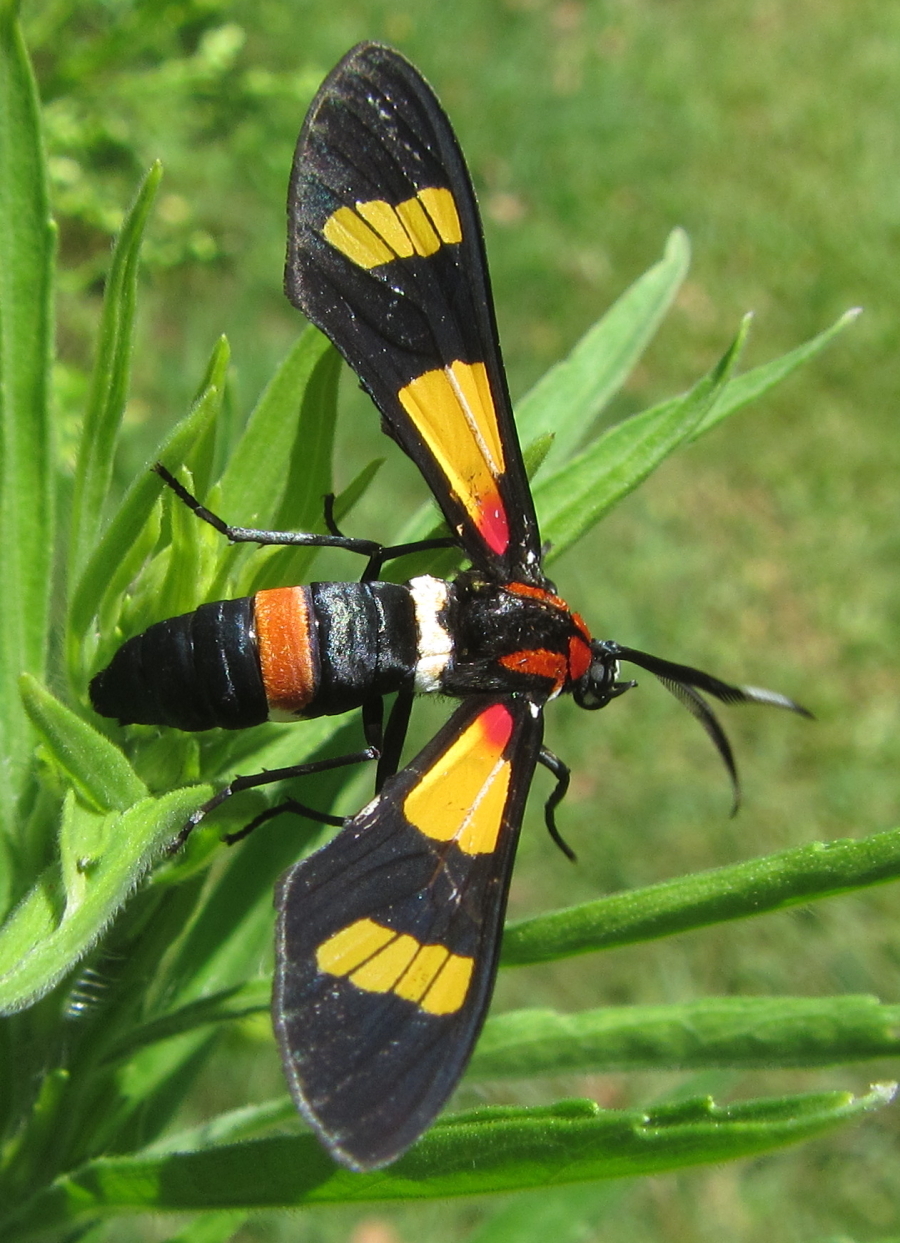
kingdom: Animalia
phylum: Arthropoda
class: Insecta
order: Lepidoptera
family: Erebidae
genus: Euchromia
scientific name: Euchromia amoena
